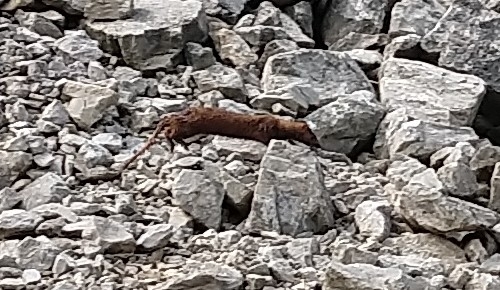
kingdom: Animalia
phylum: Chordata
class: Mammalia
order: Carnivora
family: Mustelidae
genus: Mustela
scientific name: Mustela
